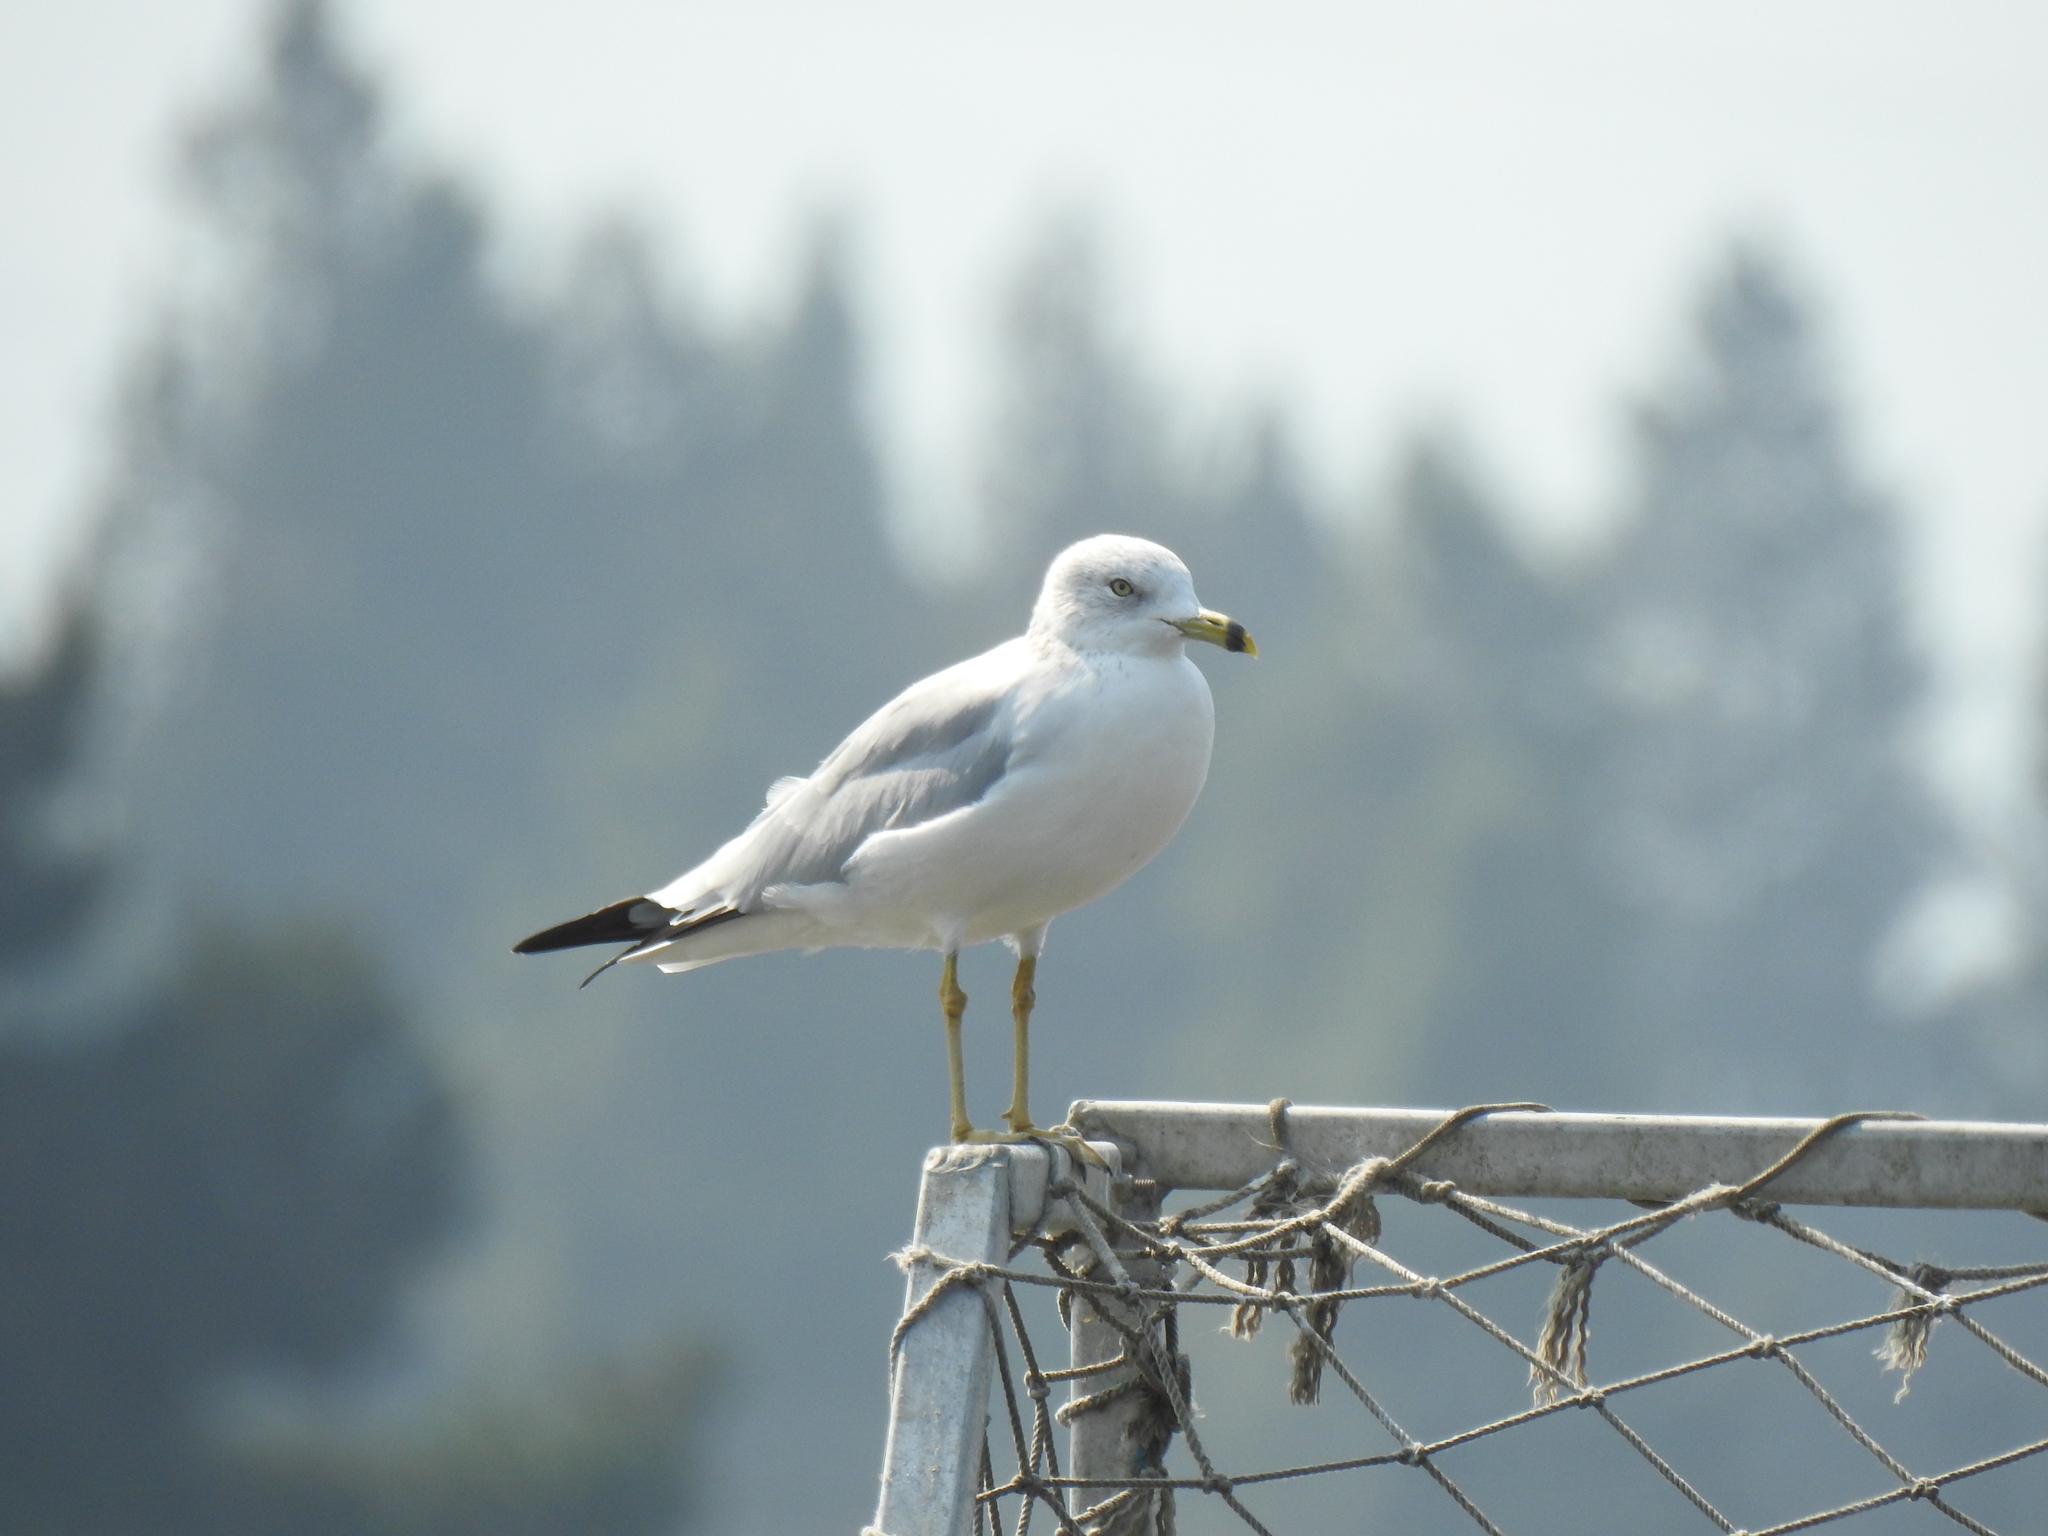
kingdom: Animalia
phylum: Chordata
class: Aves
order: Charadriiformes
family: Laridae
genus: Larus
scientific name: Larus delawarensis
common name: Ring-billed gull
